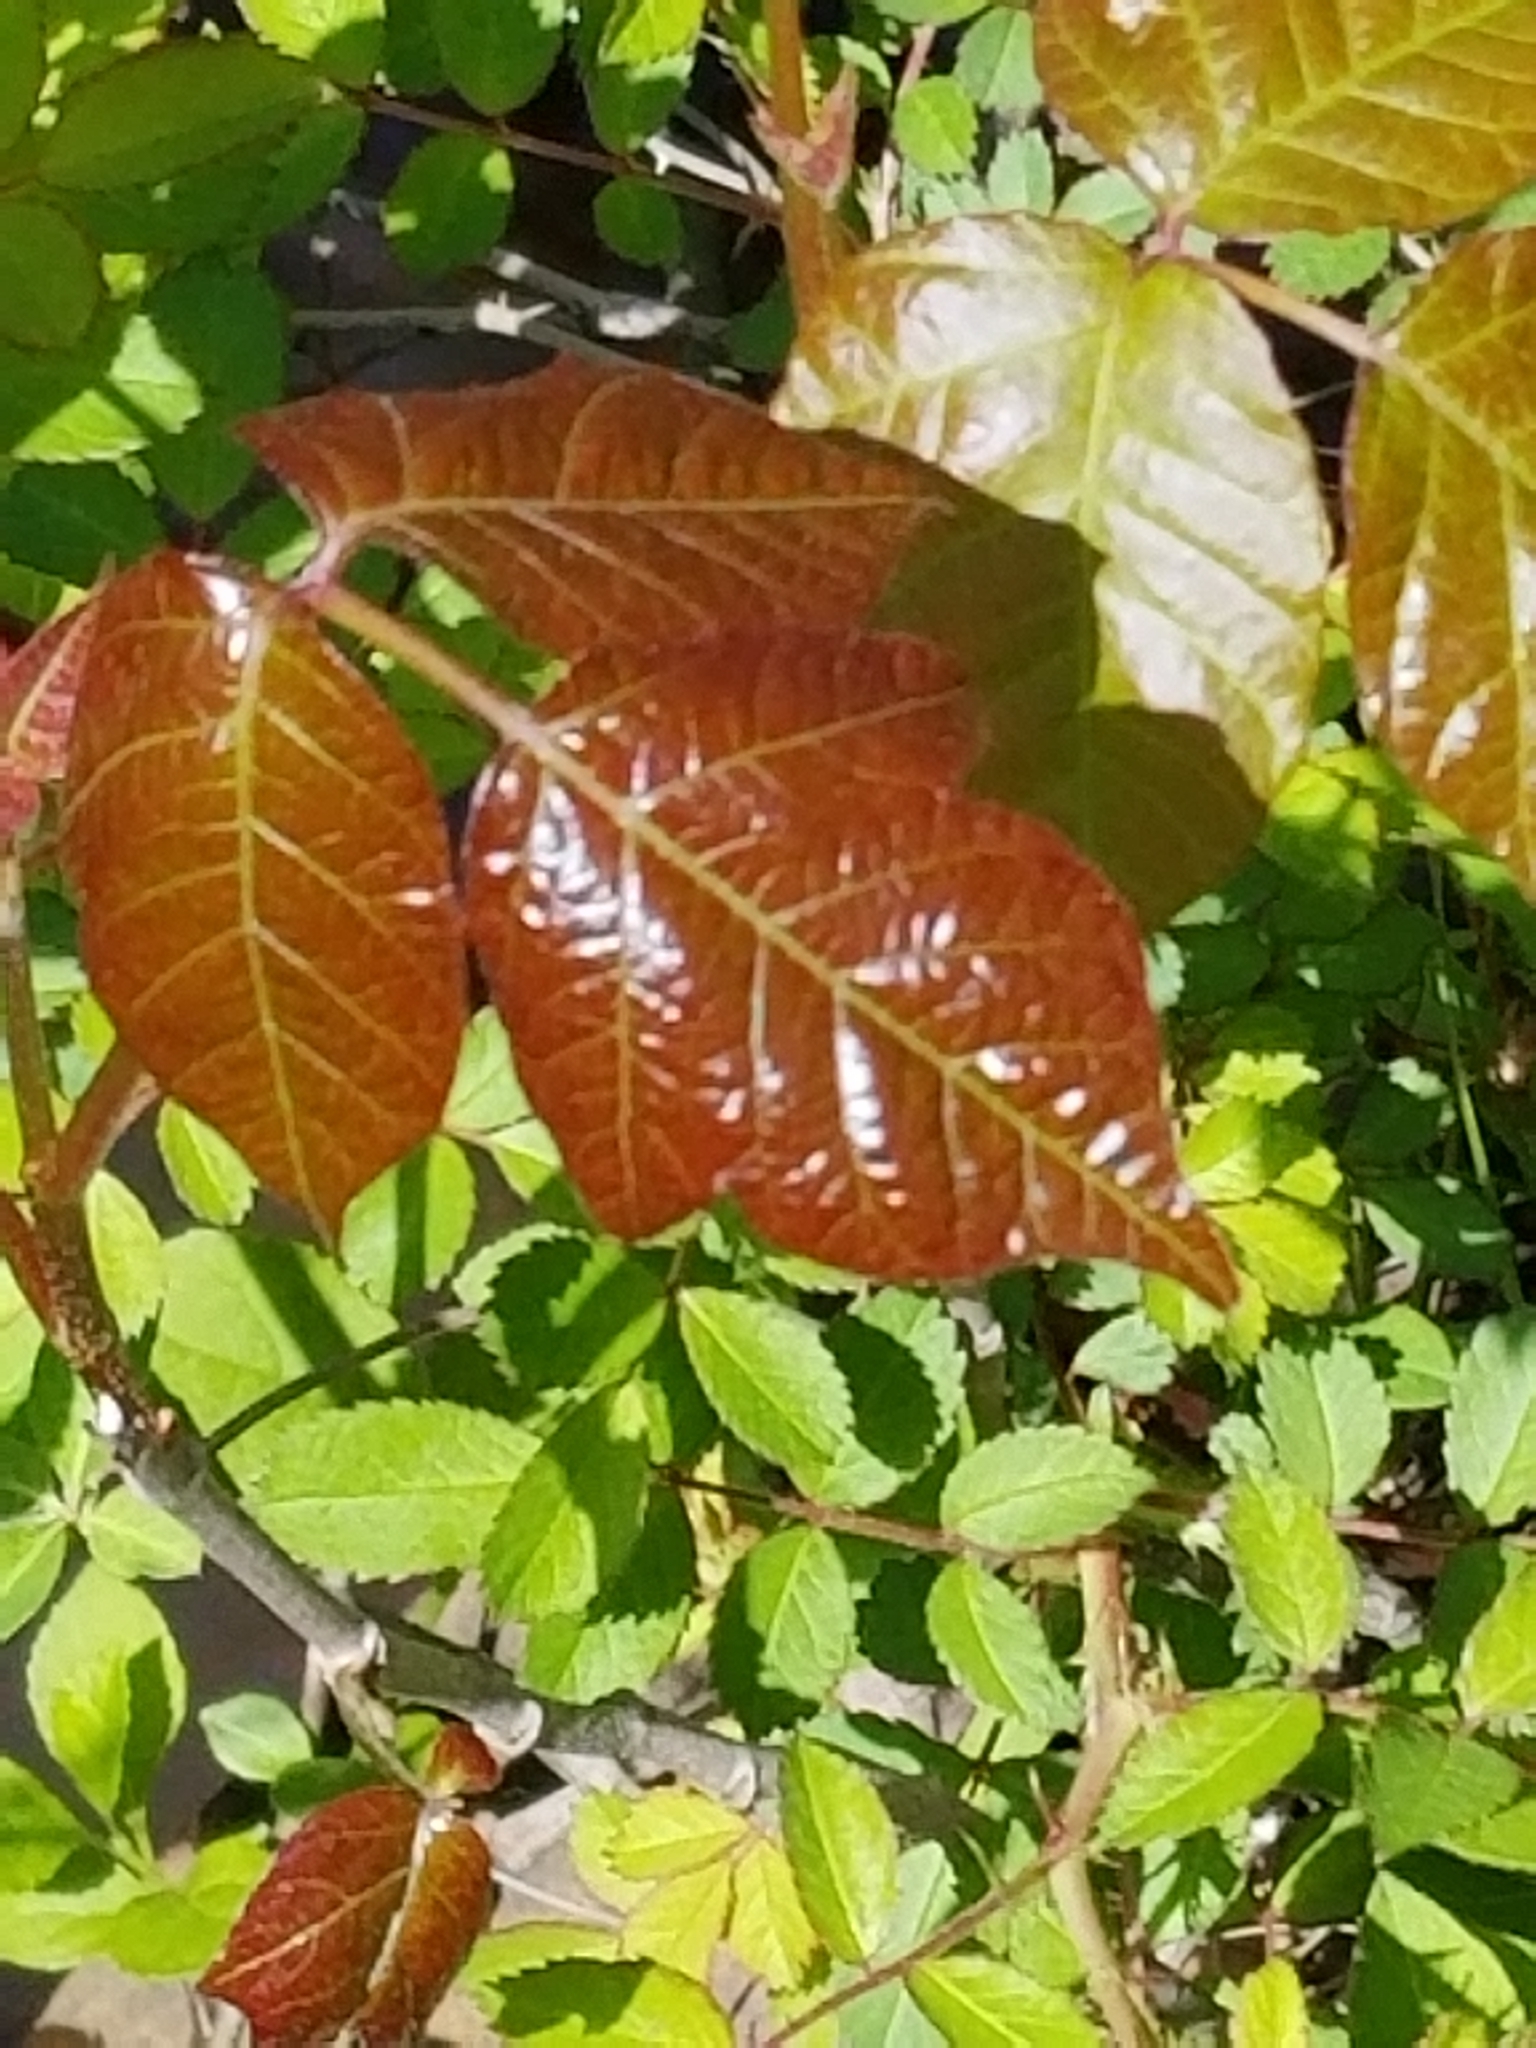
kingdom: Plantae
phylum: Tracheophyta
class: Magnoliopsida
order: Sapindales
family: Anacardiaceae
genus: Toxicodendron
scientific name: Toxicodendron radicans
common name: Poison ivy
